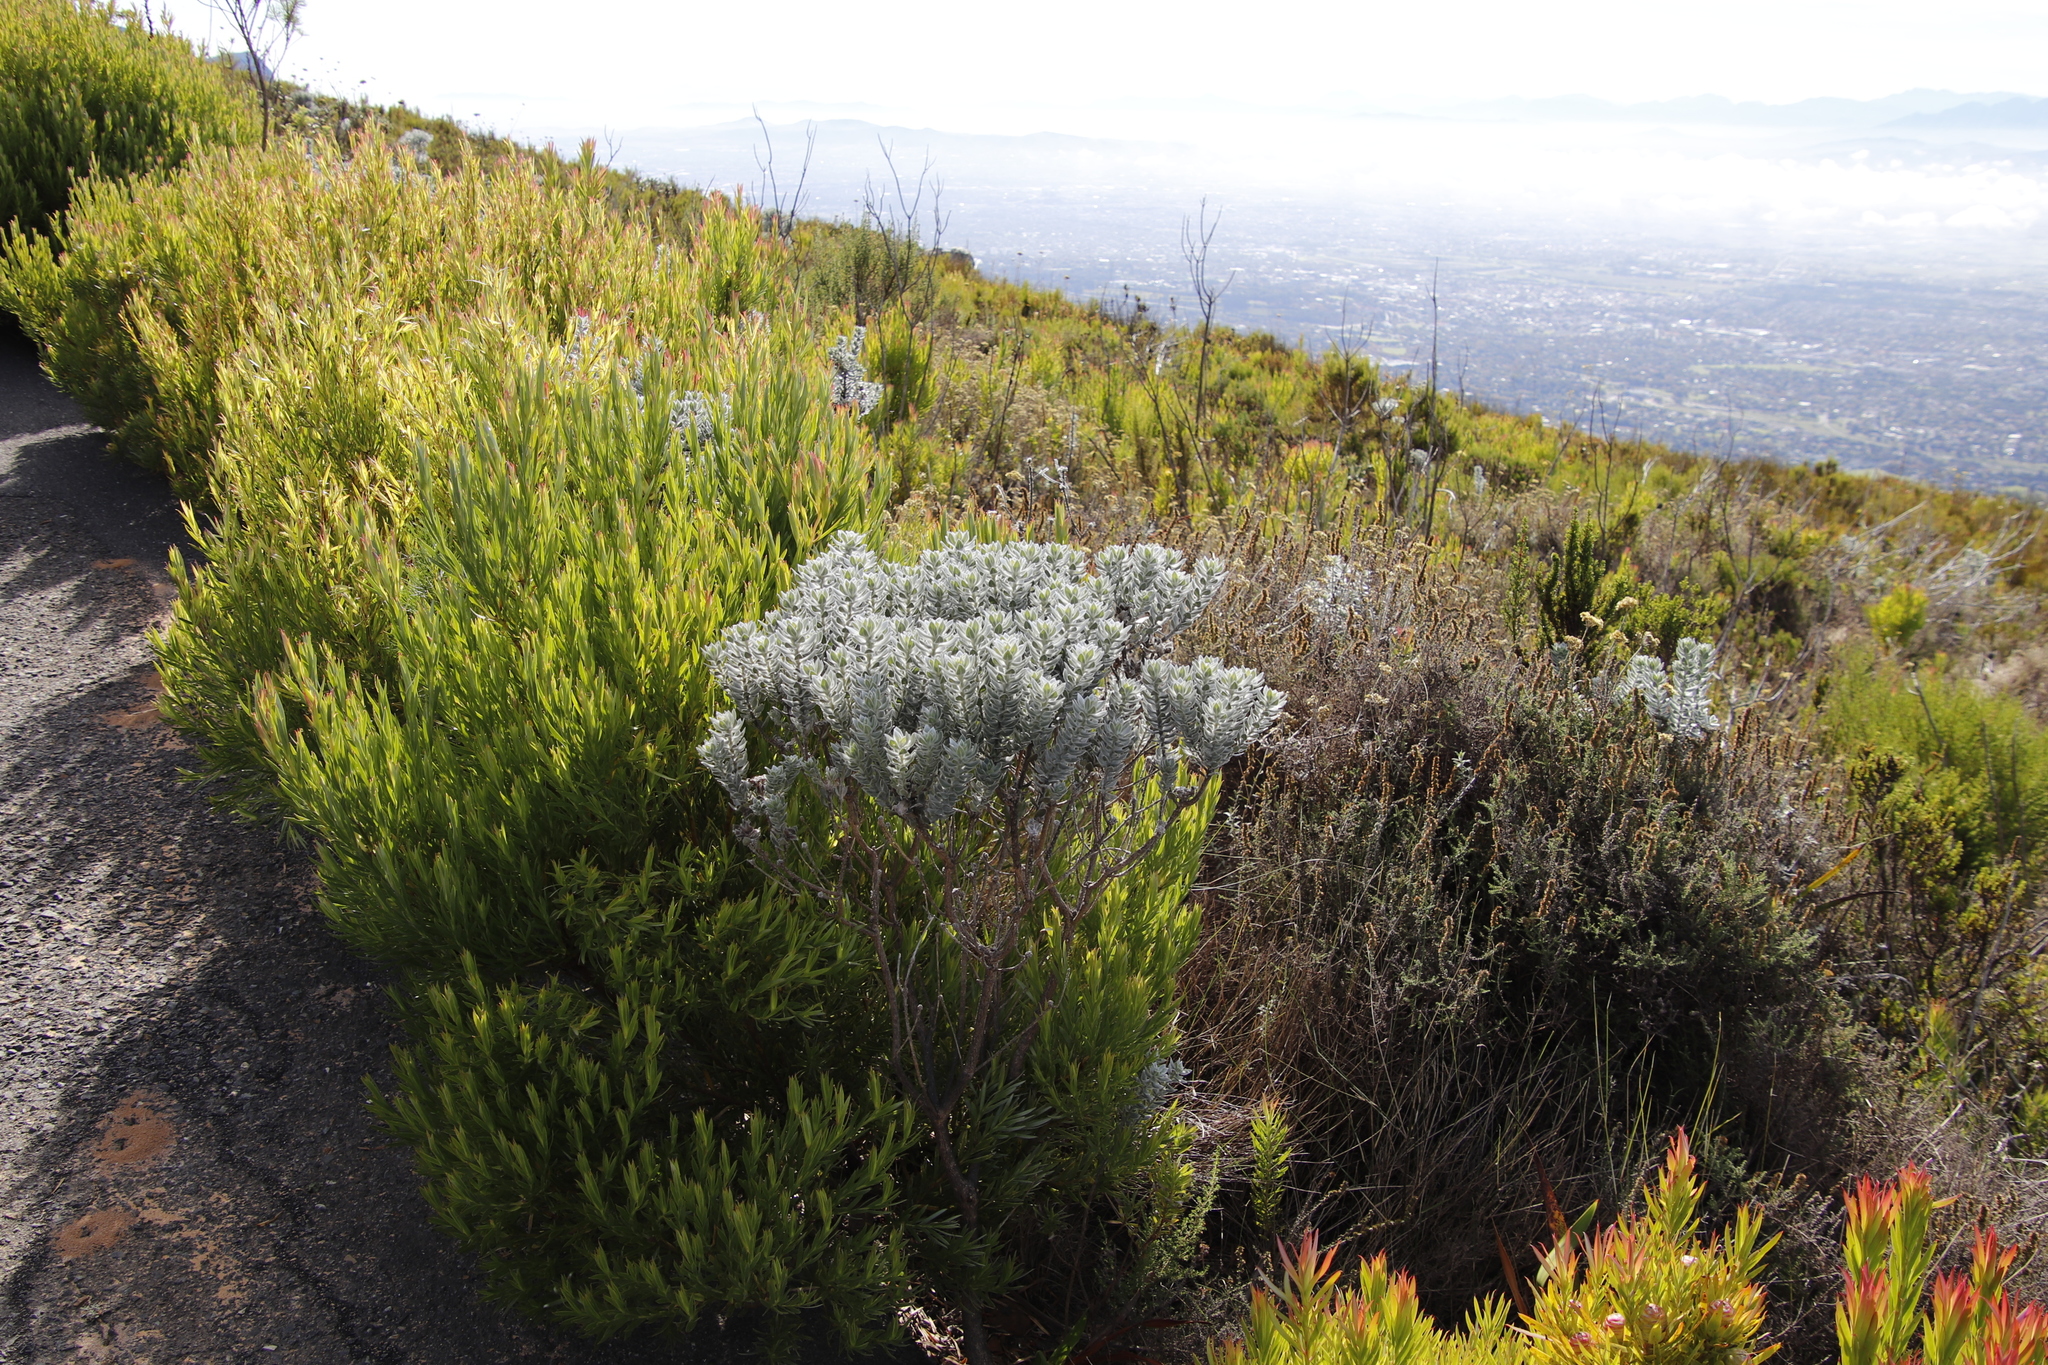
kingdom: Plantae
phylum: Tracheophyta
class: Magnoliopsida
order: Fabales
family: Fabaceae
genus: Xiphotheca
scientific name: Xiphotheca fruticosa
